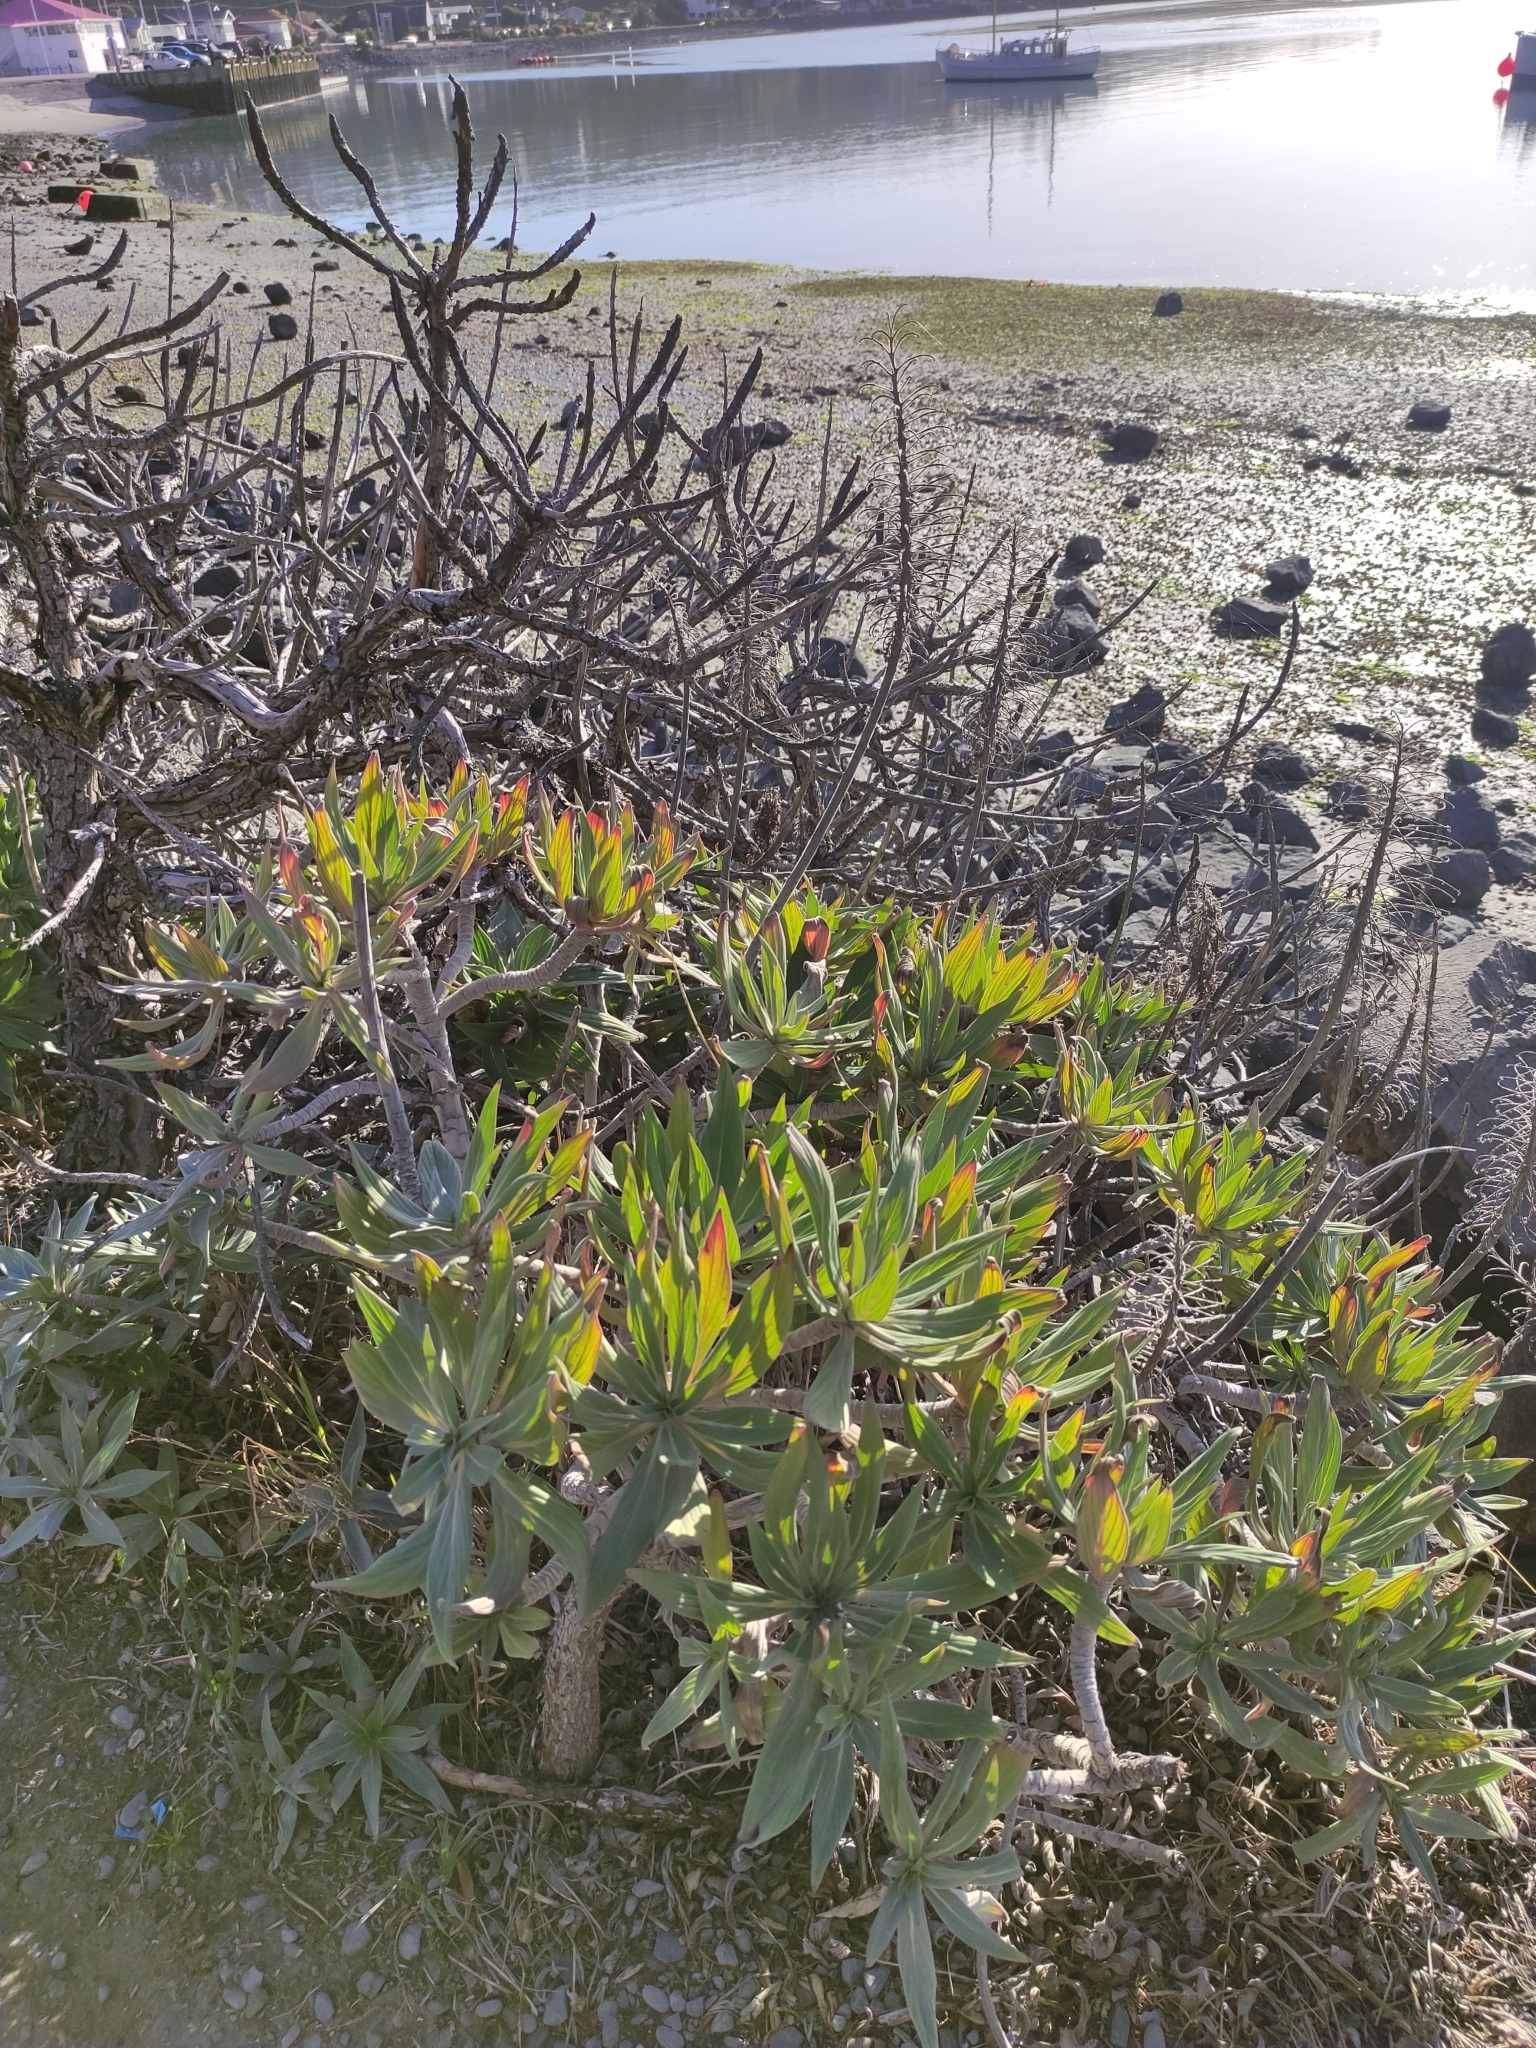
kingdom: Plantae
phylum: Tracheophyta
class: Magnoliopsida
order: Boraginales
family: Boraginaceae
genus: Echium
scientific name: Echium candicans
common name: Pride of madeira
